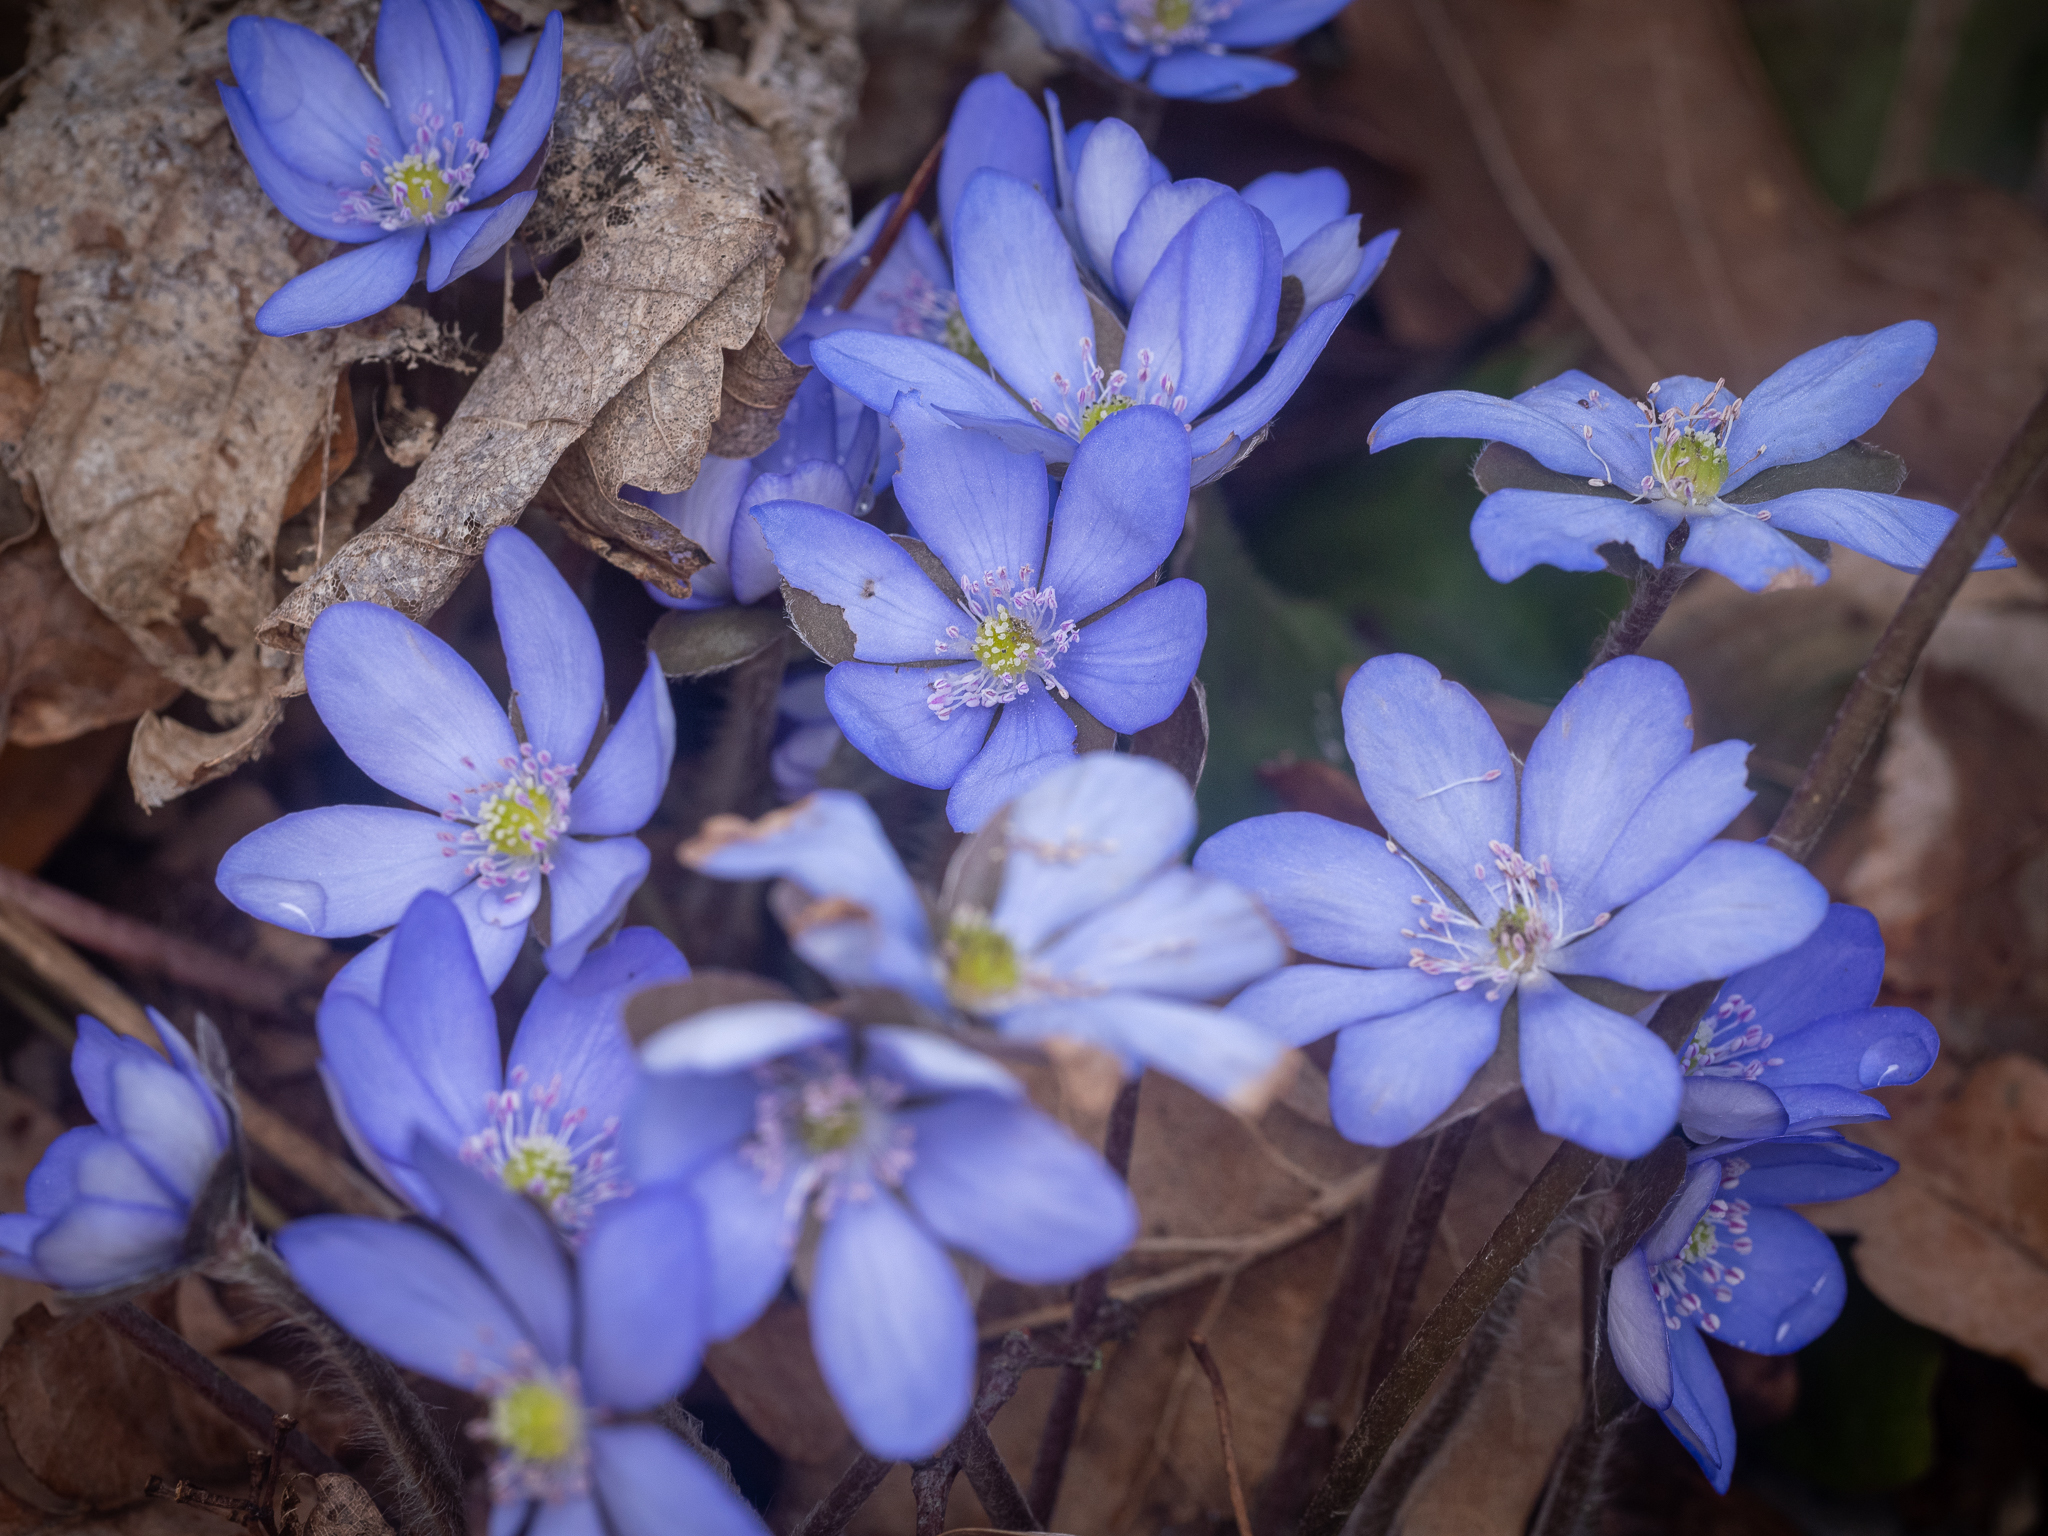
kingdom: Plantae
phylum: Tracheophyta
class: Magnoliopsida
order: Ranunculales
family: Ranunculaceae
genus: Hepatica
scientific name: Hepatica nobilis
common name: Liverleaf
